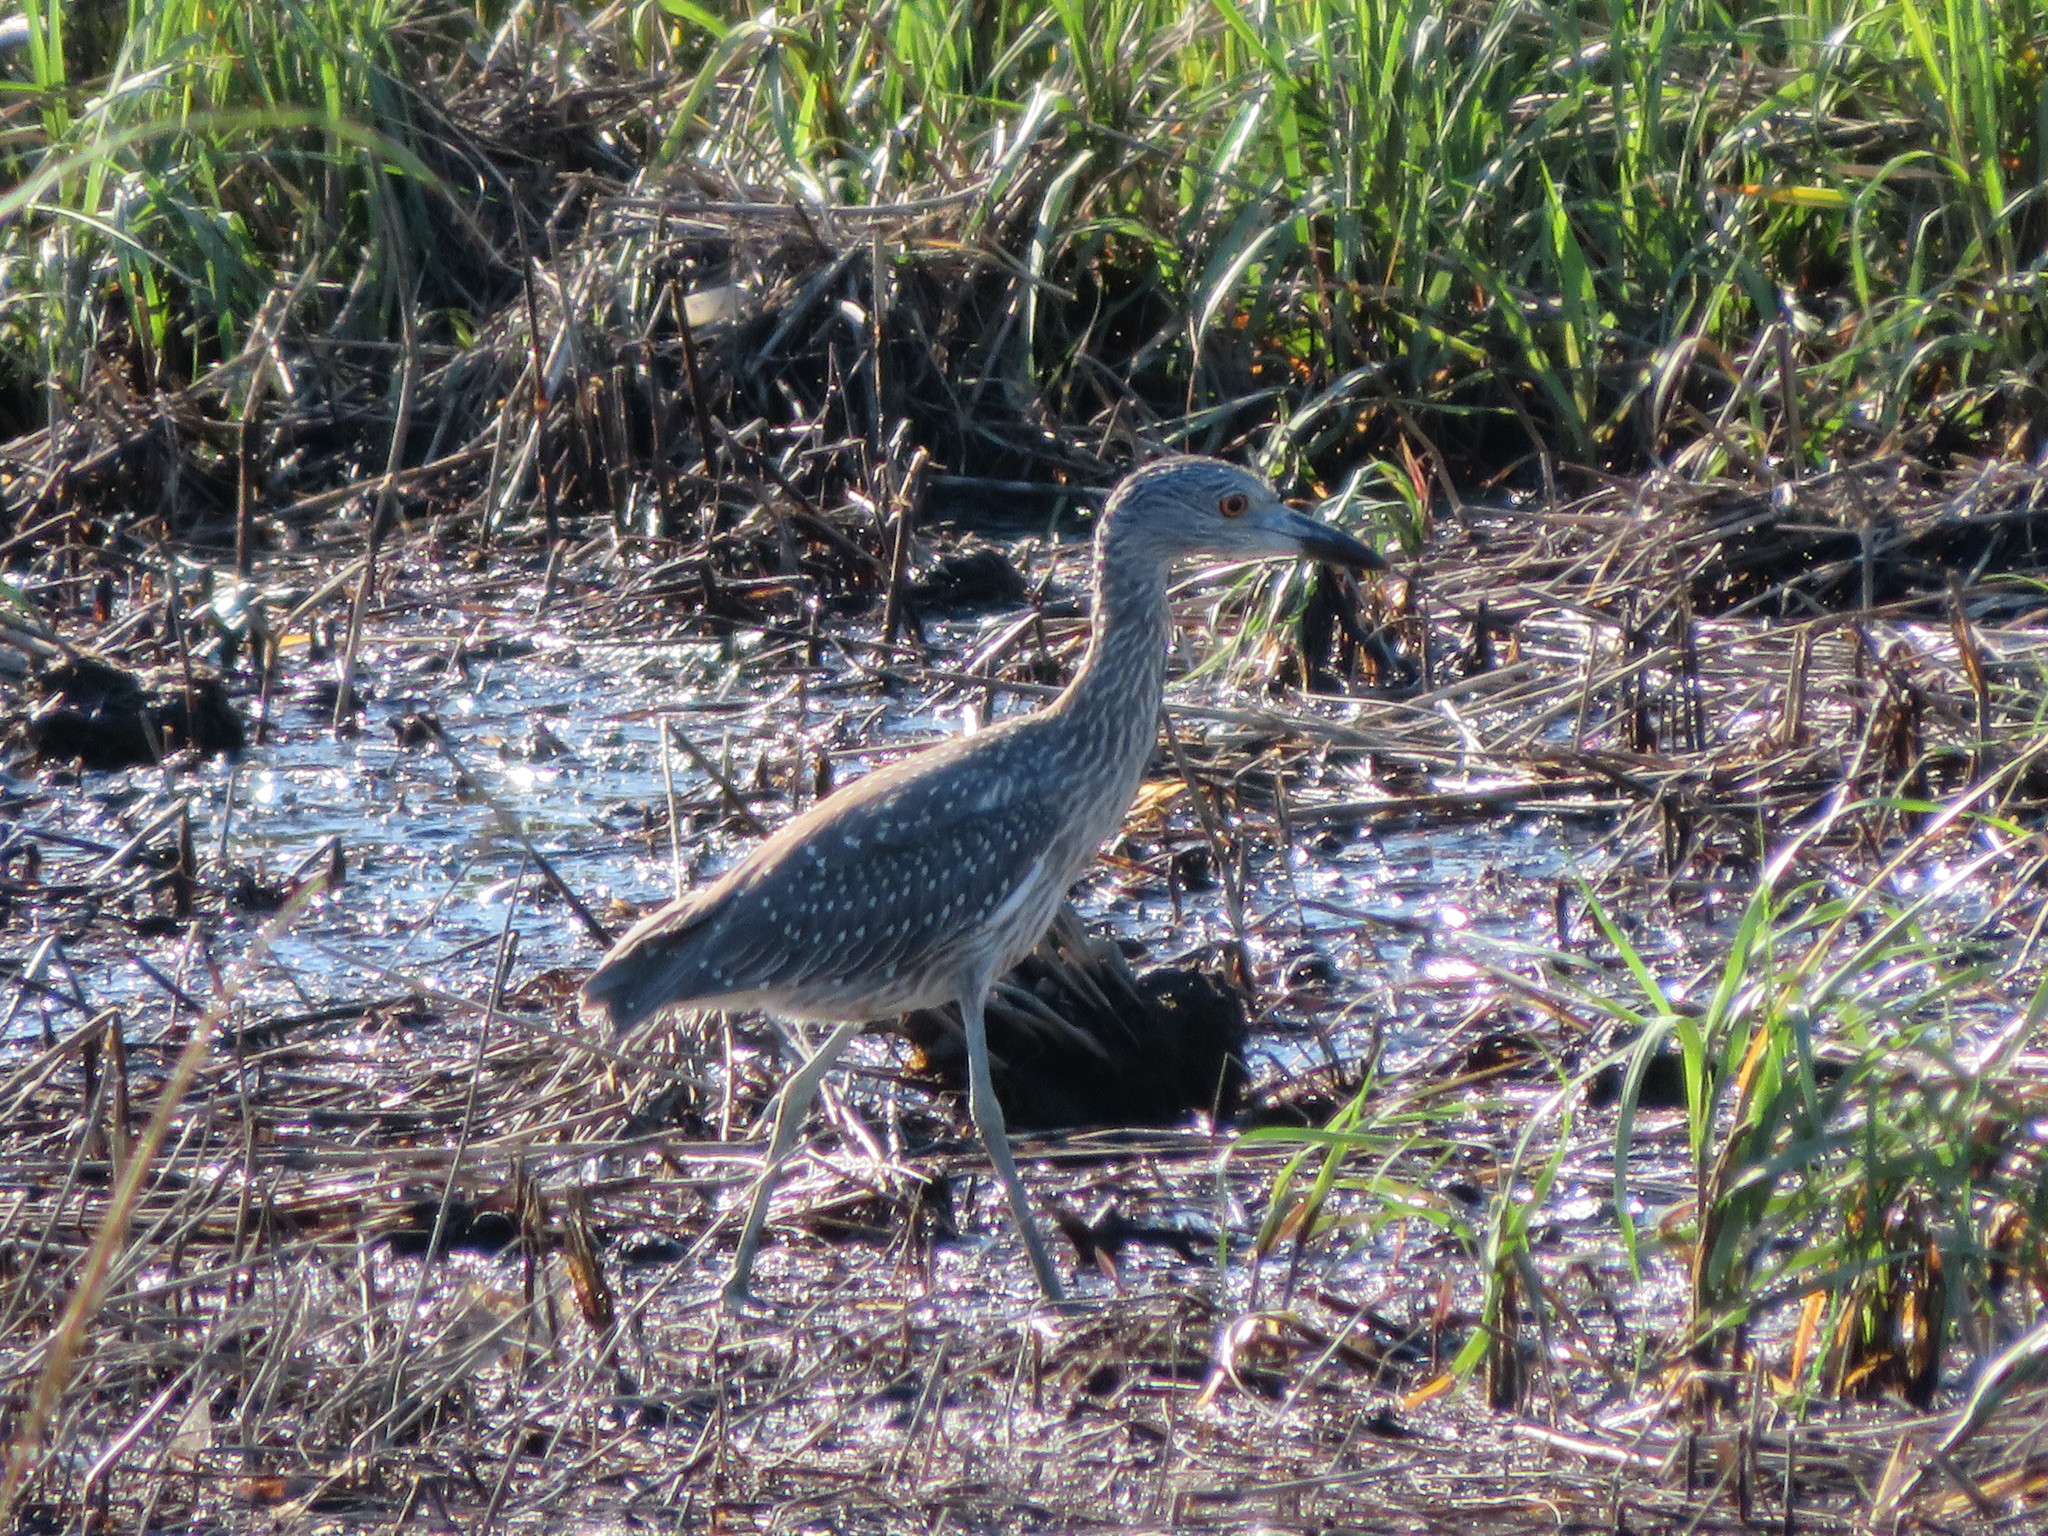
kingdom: Animalia
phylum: Chordata
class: Aves
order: Pelecaniformes
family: Ardeidae
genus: Nyctanassa
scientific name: Nyctanassa violacea
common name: Yellow-crowned night heron
